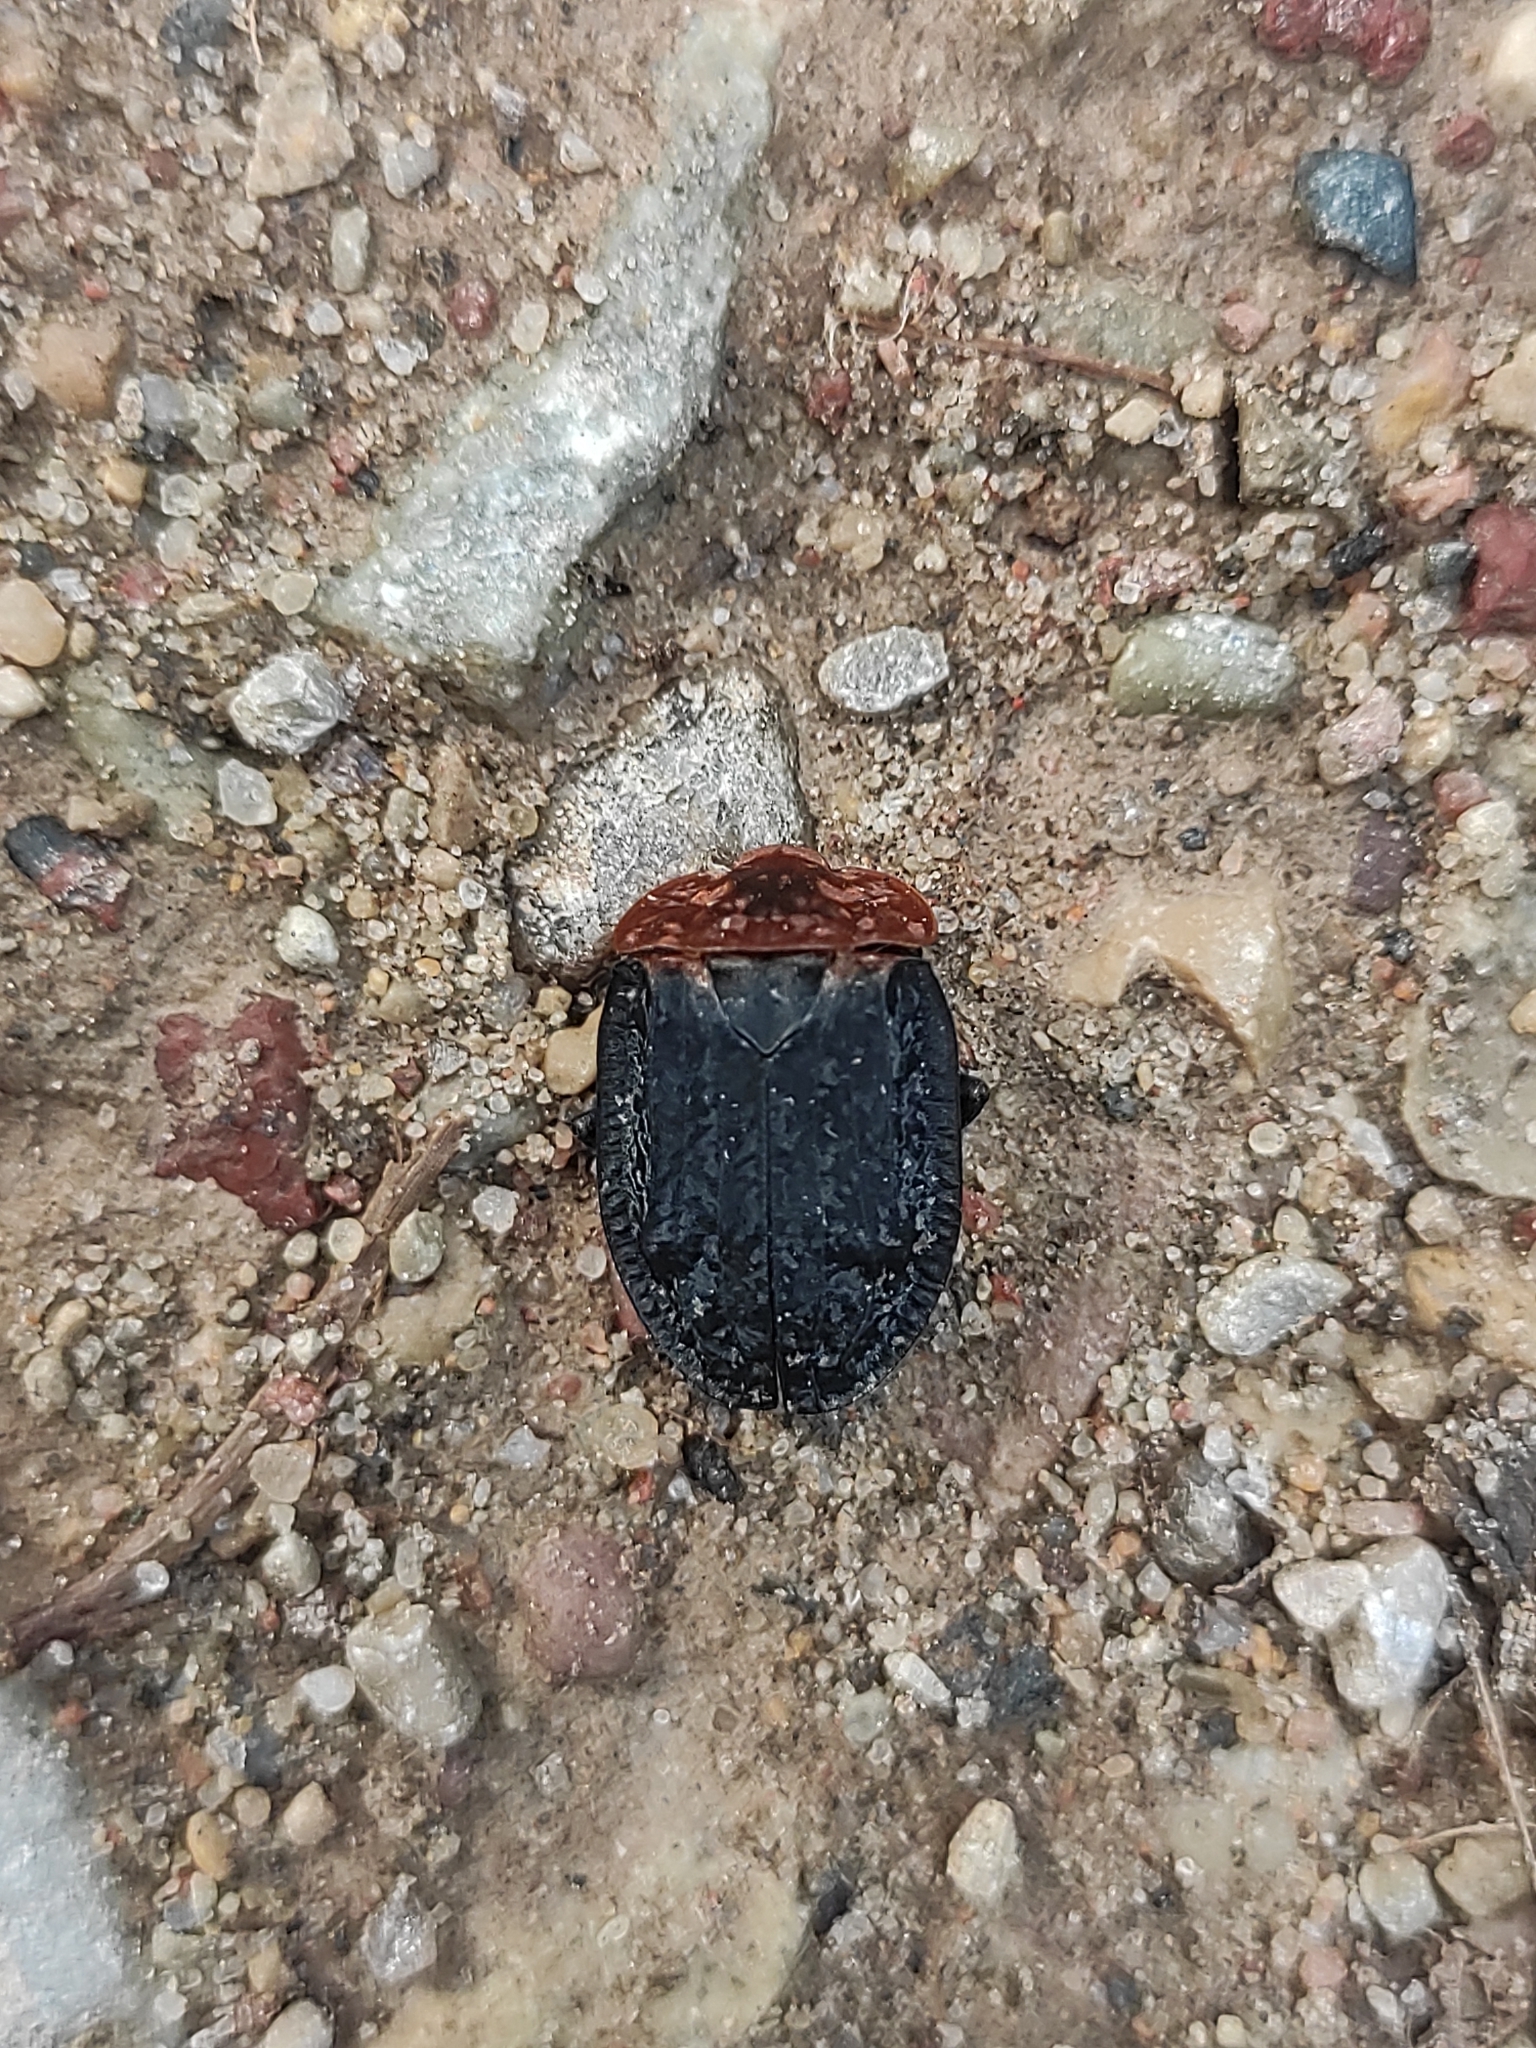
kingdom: Animalia
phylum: Arthropoda
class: Insecta
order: Coleoptera
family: Staphylinidae
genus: Oiceoptoma
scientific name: Oiceoptoma thoracicum
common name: Red-breasted carrion beetle
